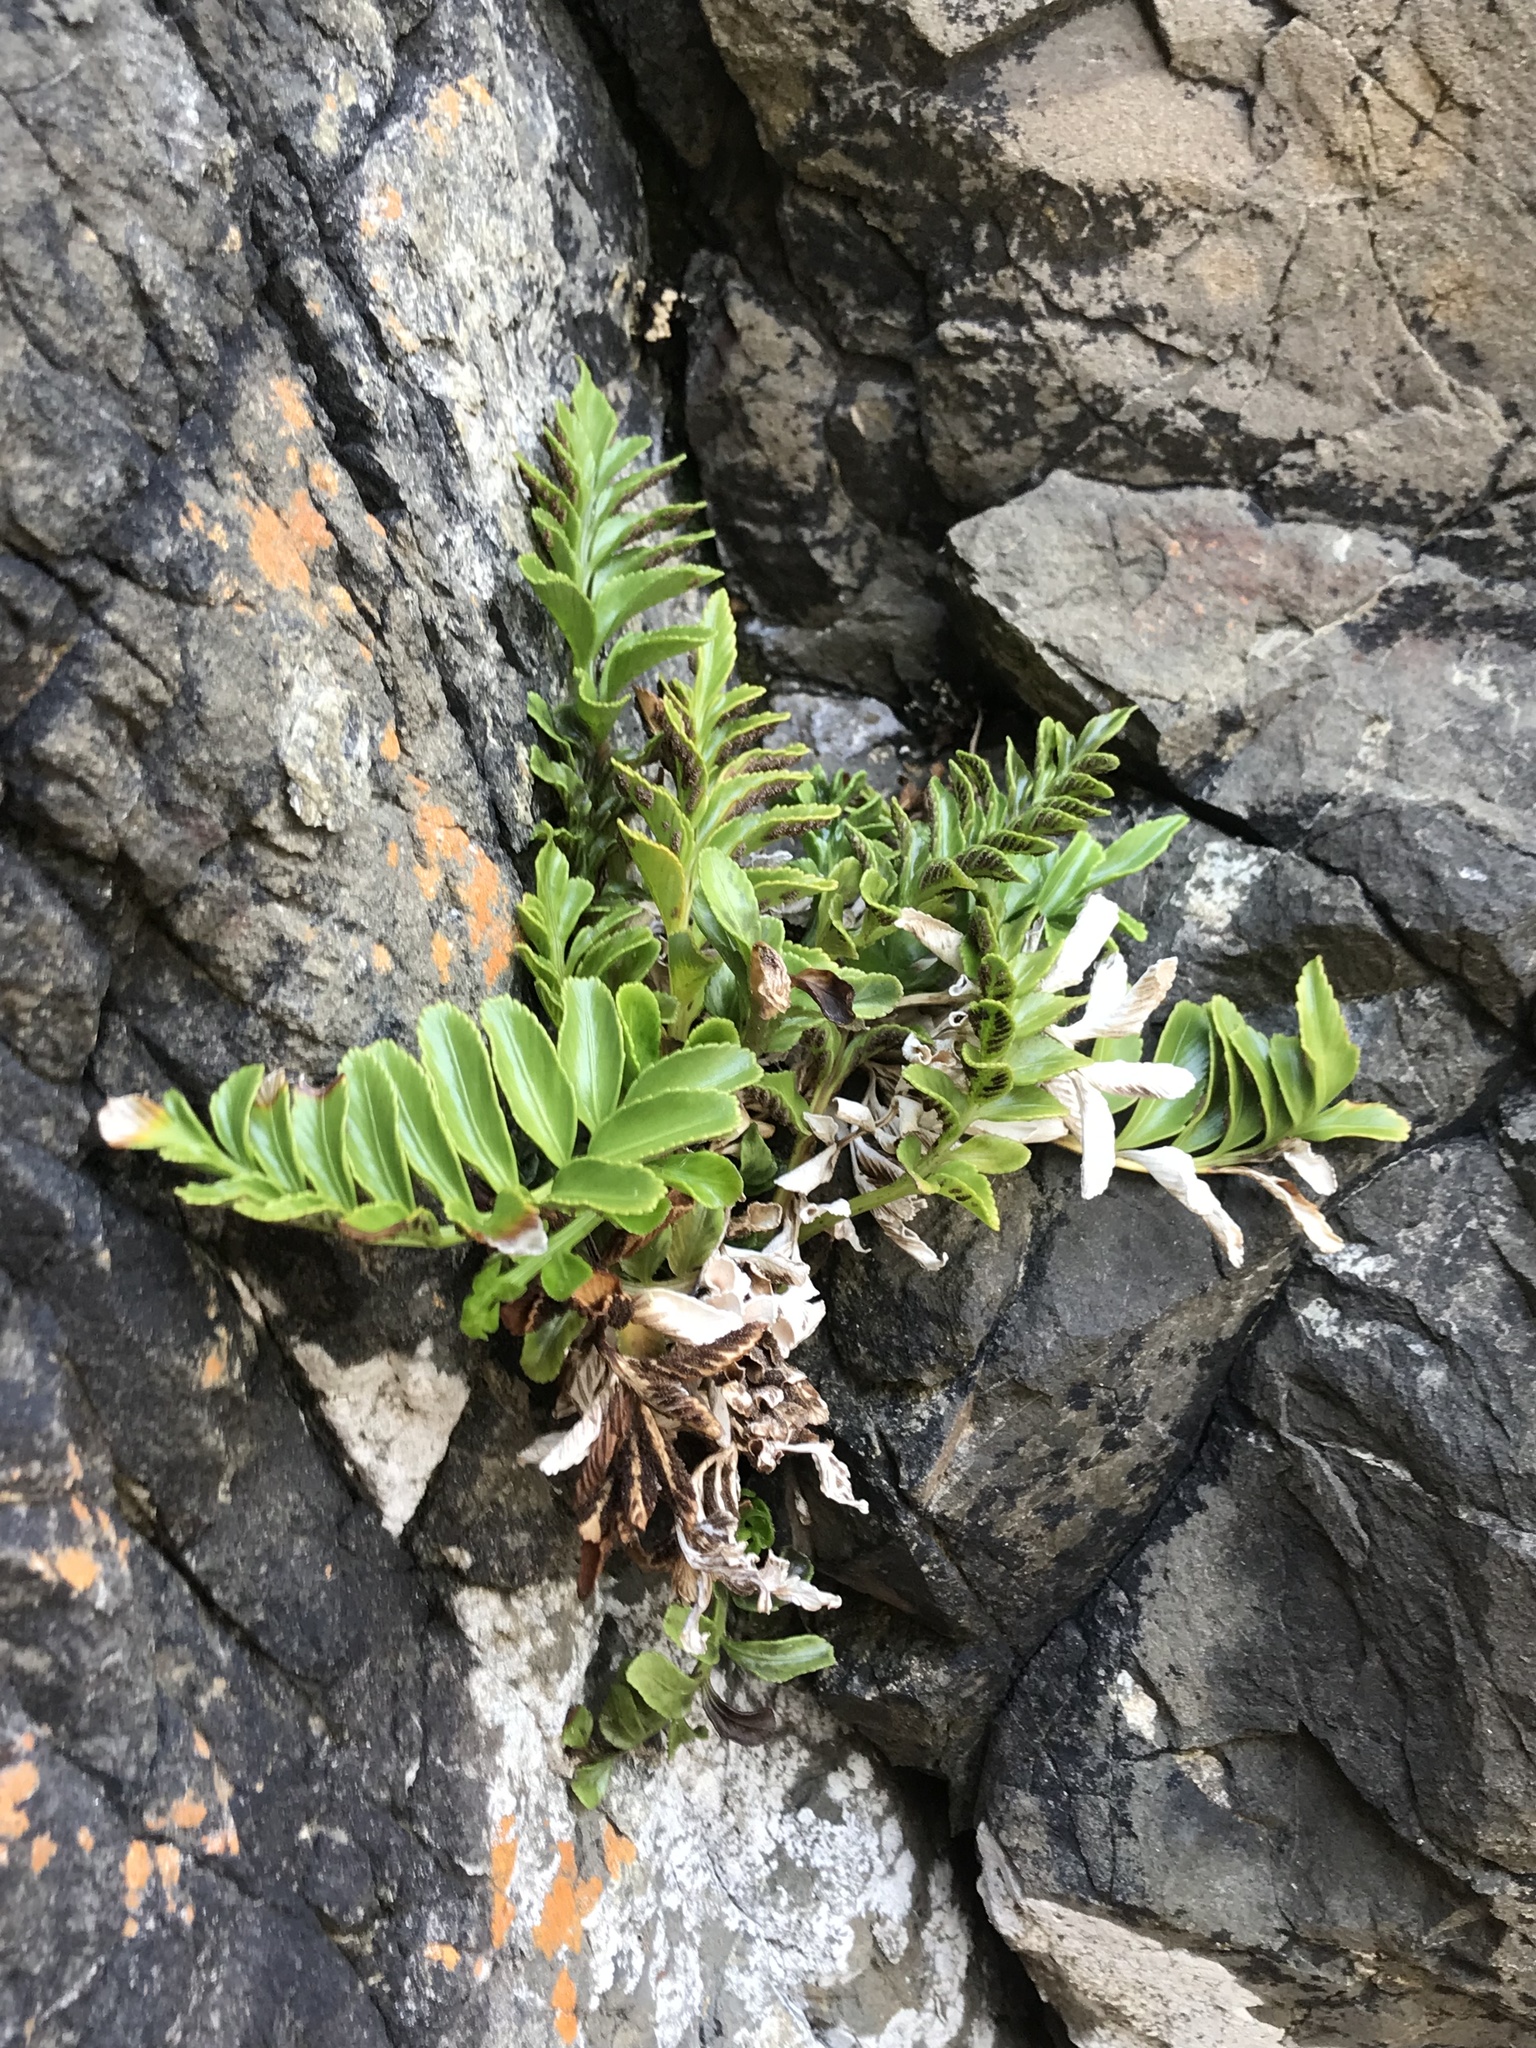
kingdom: Plantae
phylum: Tracheophyta
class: Polypodiopsida
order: Polypodiales
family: Aspleniaceae
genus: Asplenium
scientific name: Asplenium obtusatum
